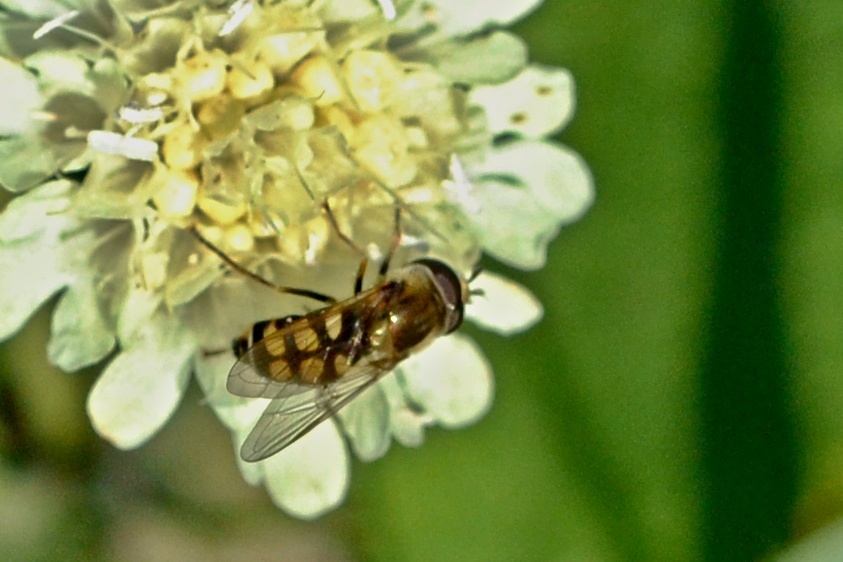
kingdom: Animalia
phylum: Arthropoda
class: Insecta
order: Diptera
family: Syrphidae
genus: Eupeodes
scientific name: Eupeodes corollae
